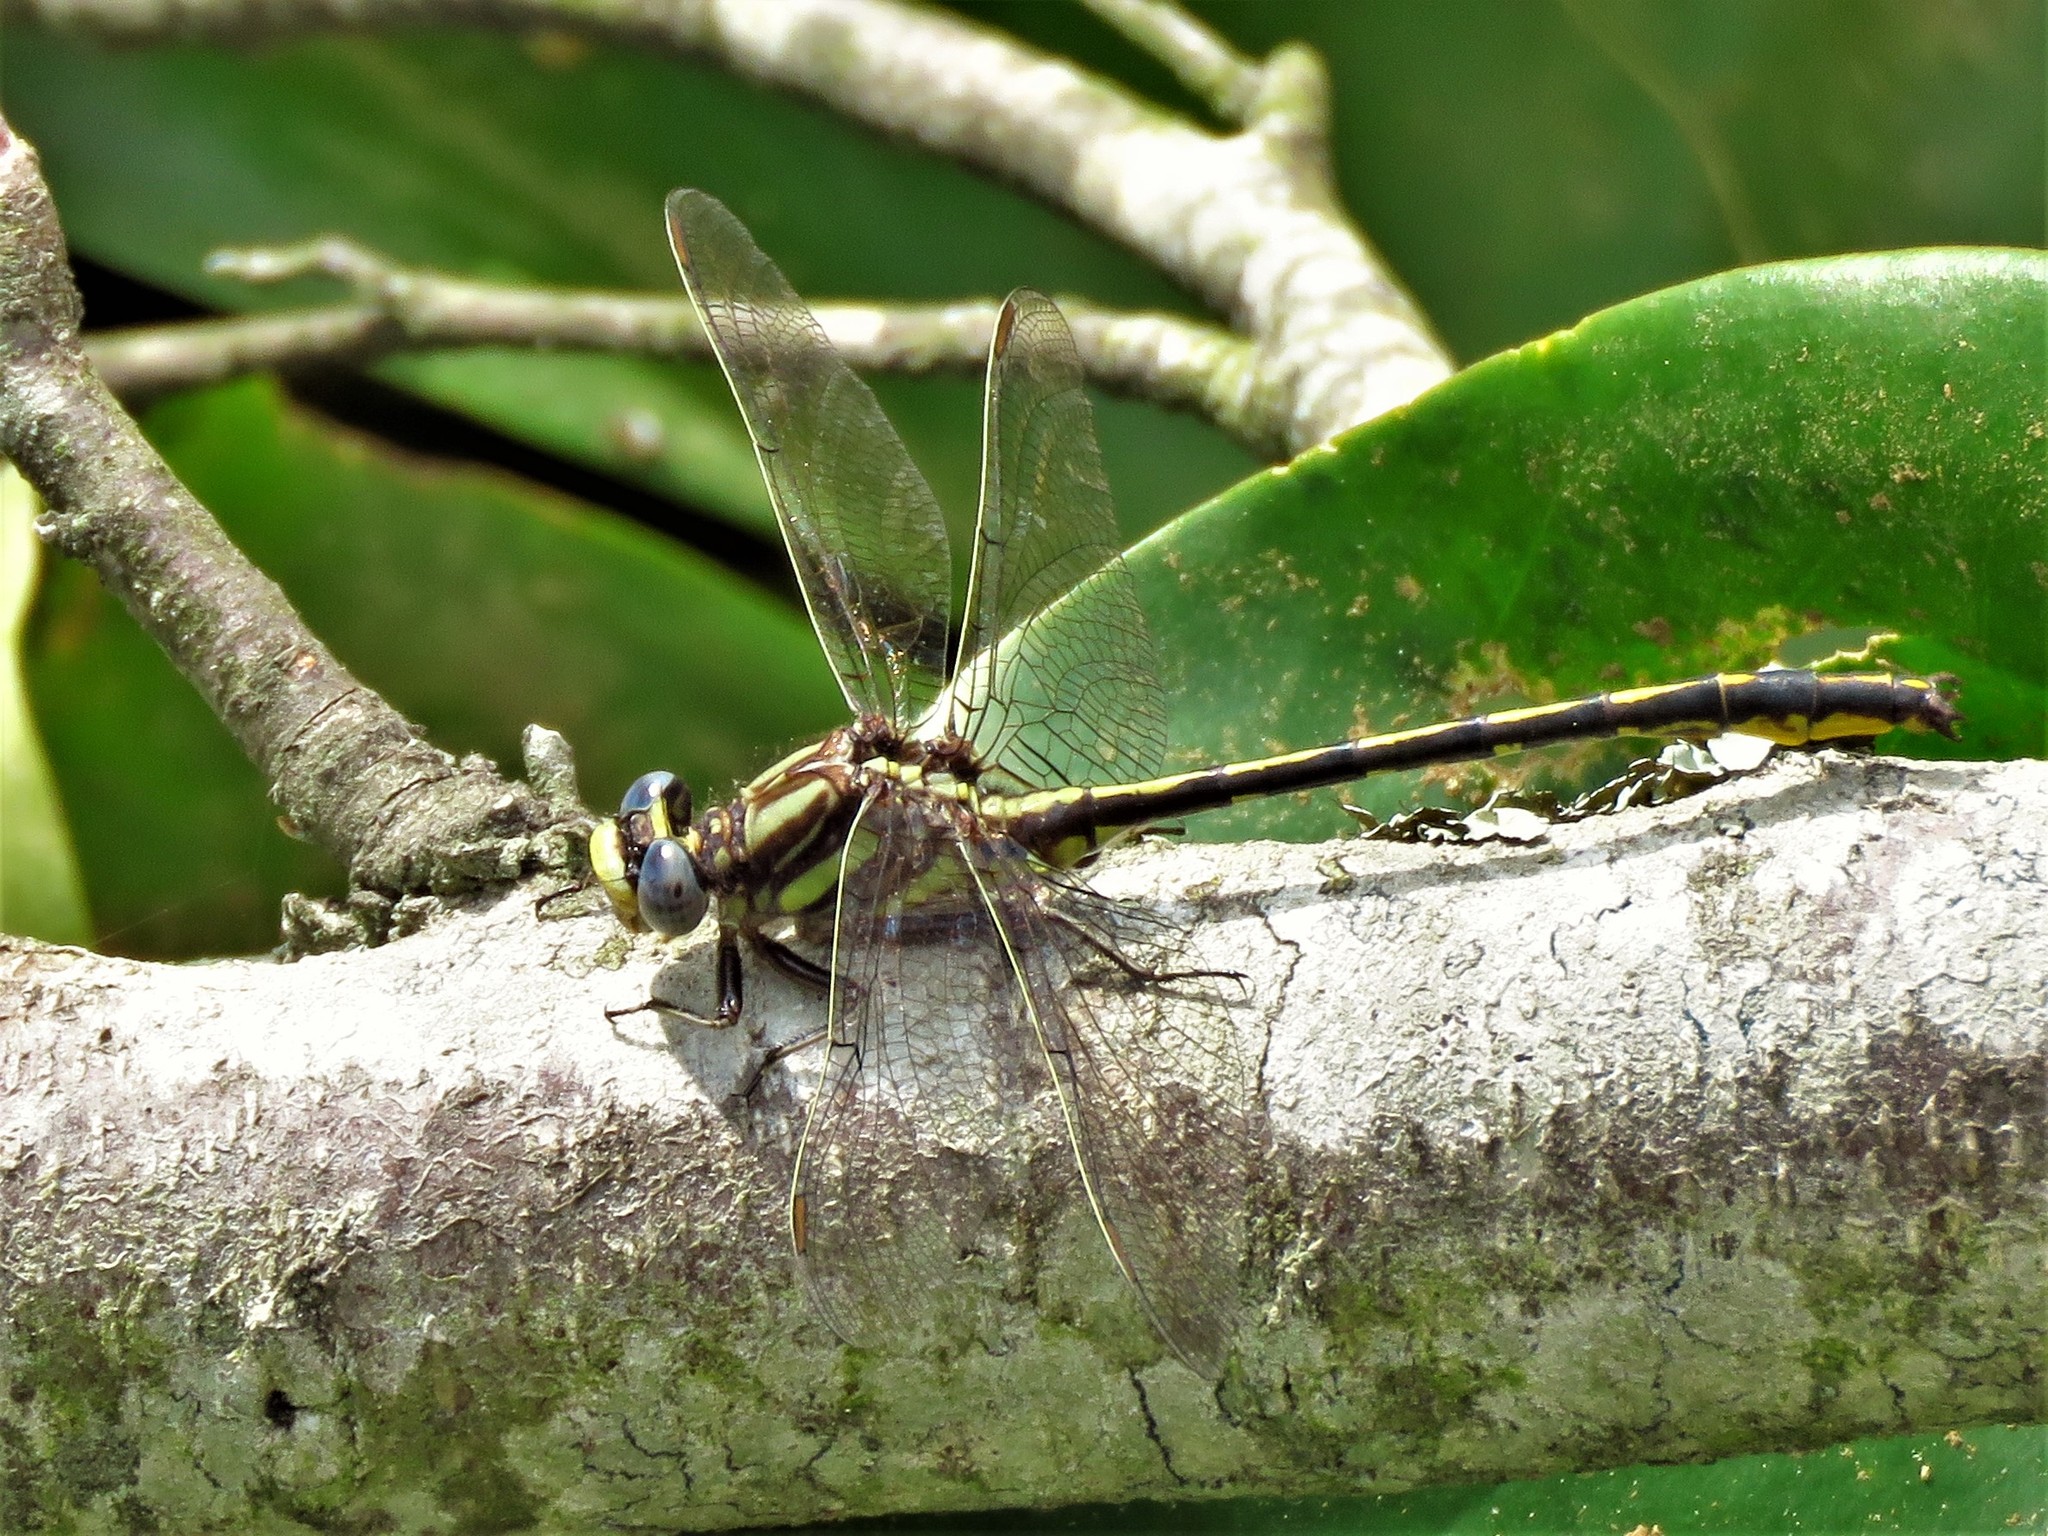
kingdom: Animalia
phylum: Arthropoda
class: Insecta
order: Odonata
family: Gomphidae
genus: Phanogomphus
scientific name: Phanogomphus oklahomensis
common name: Oklahoma clubtail
